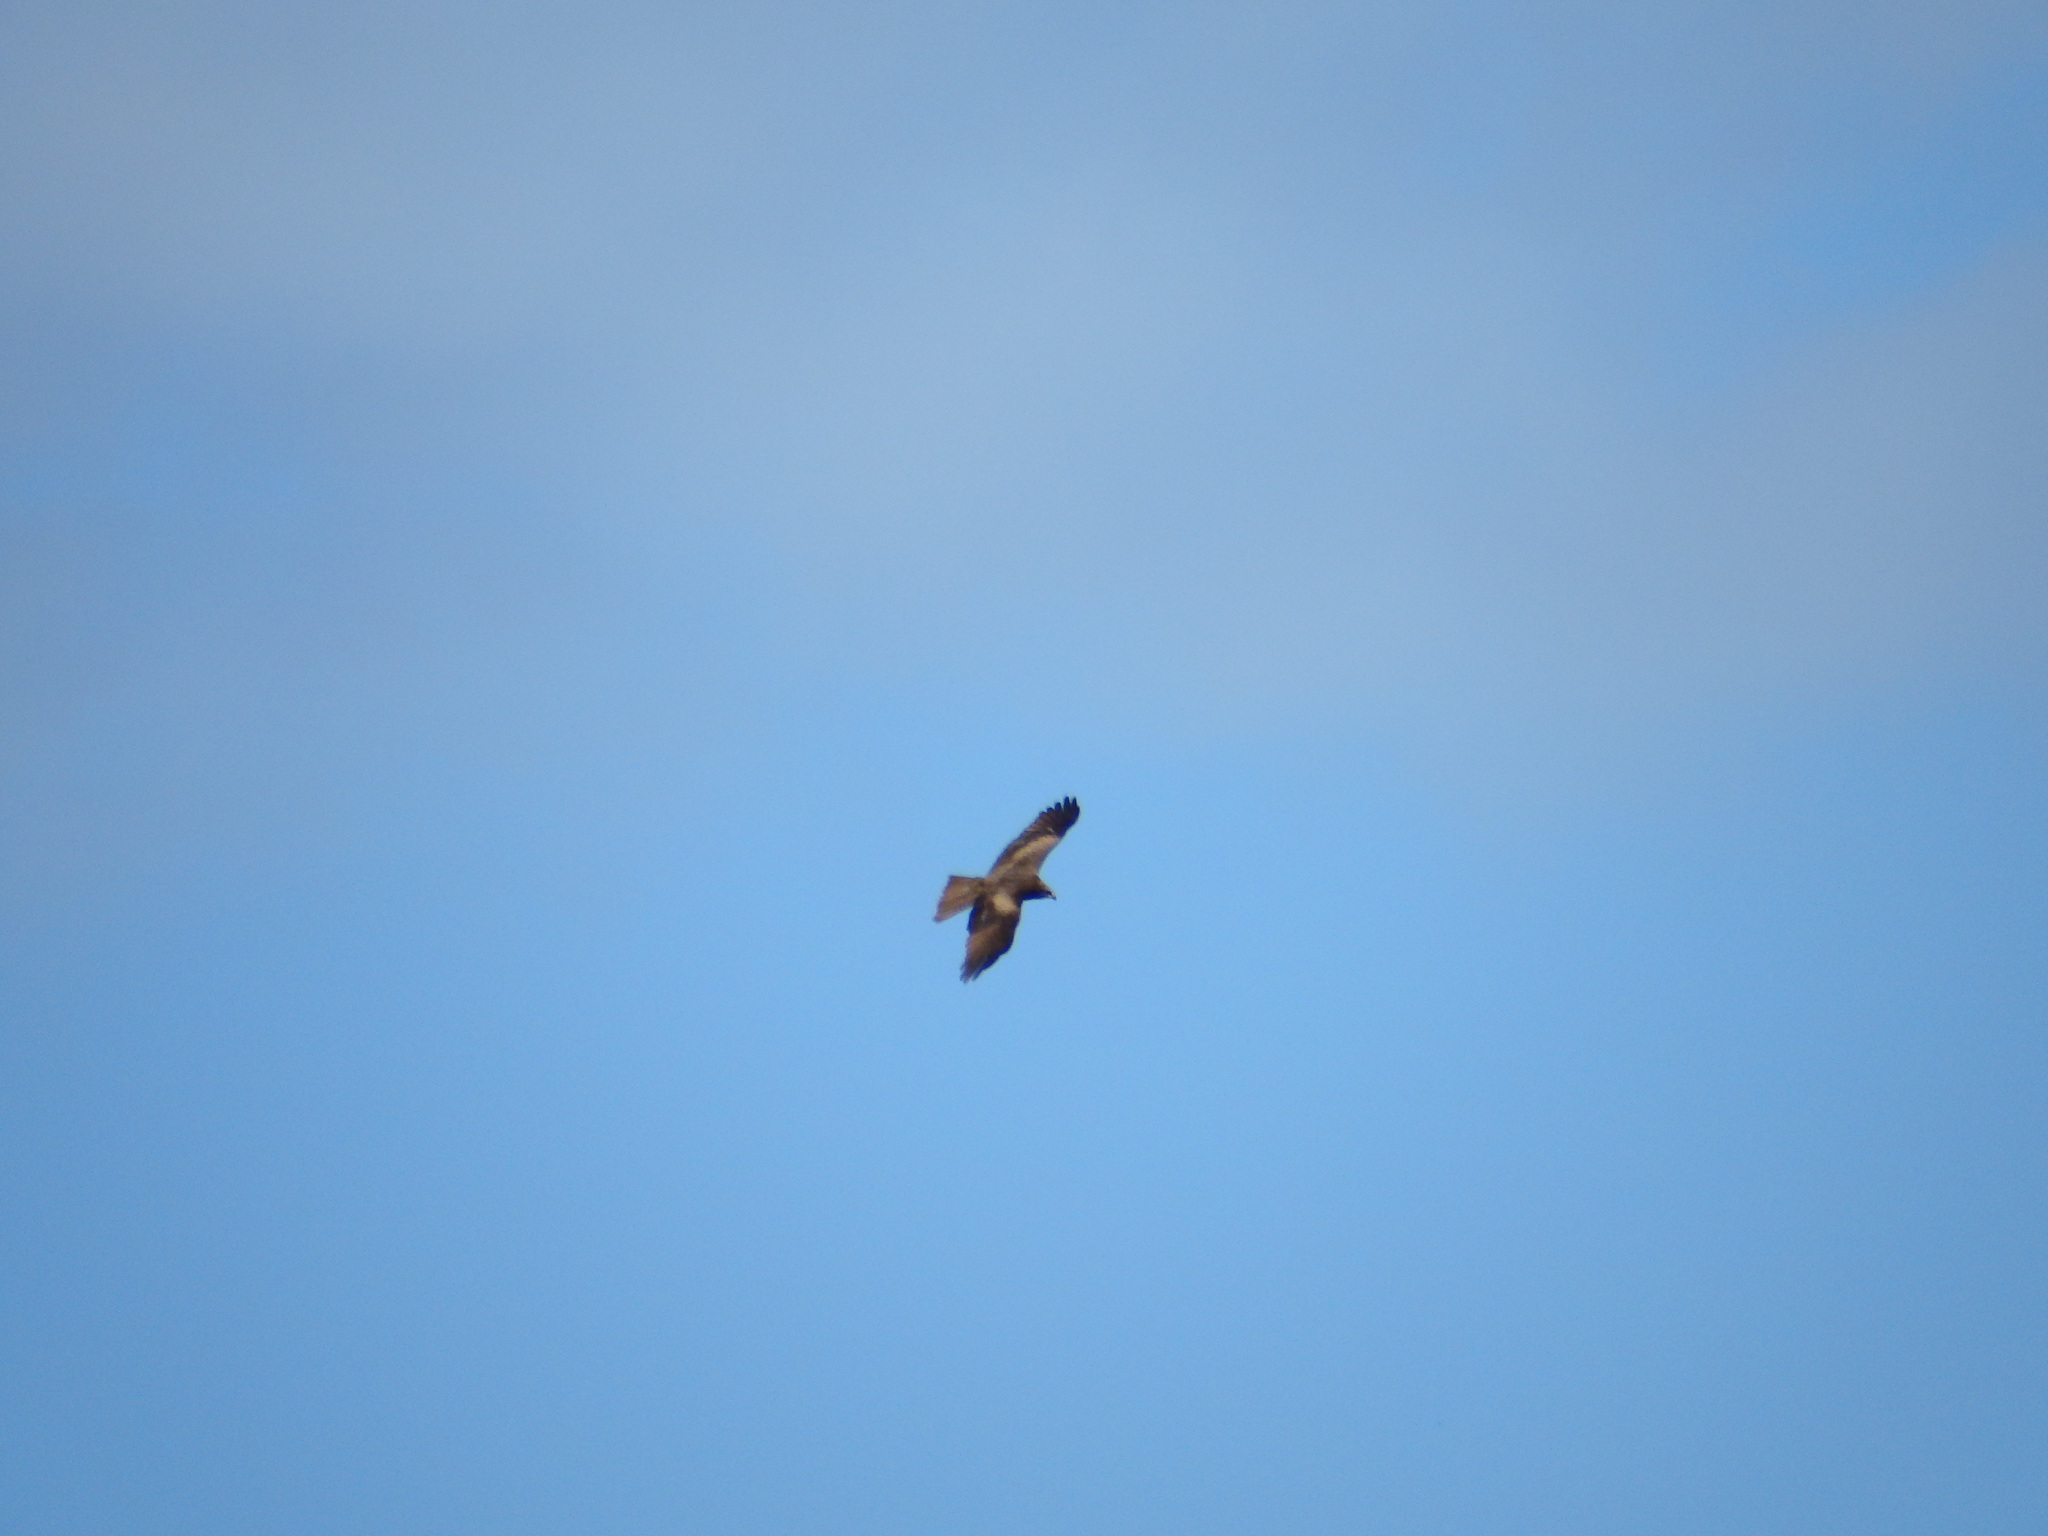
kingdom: Animalia
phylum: Chordata
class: Aves
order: Accipitriformes
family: Accipitridae
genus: Milvus
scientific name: Milvus migrans
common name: Black kite
